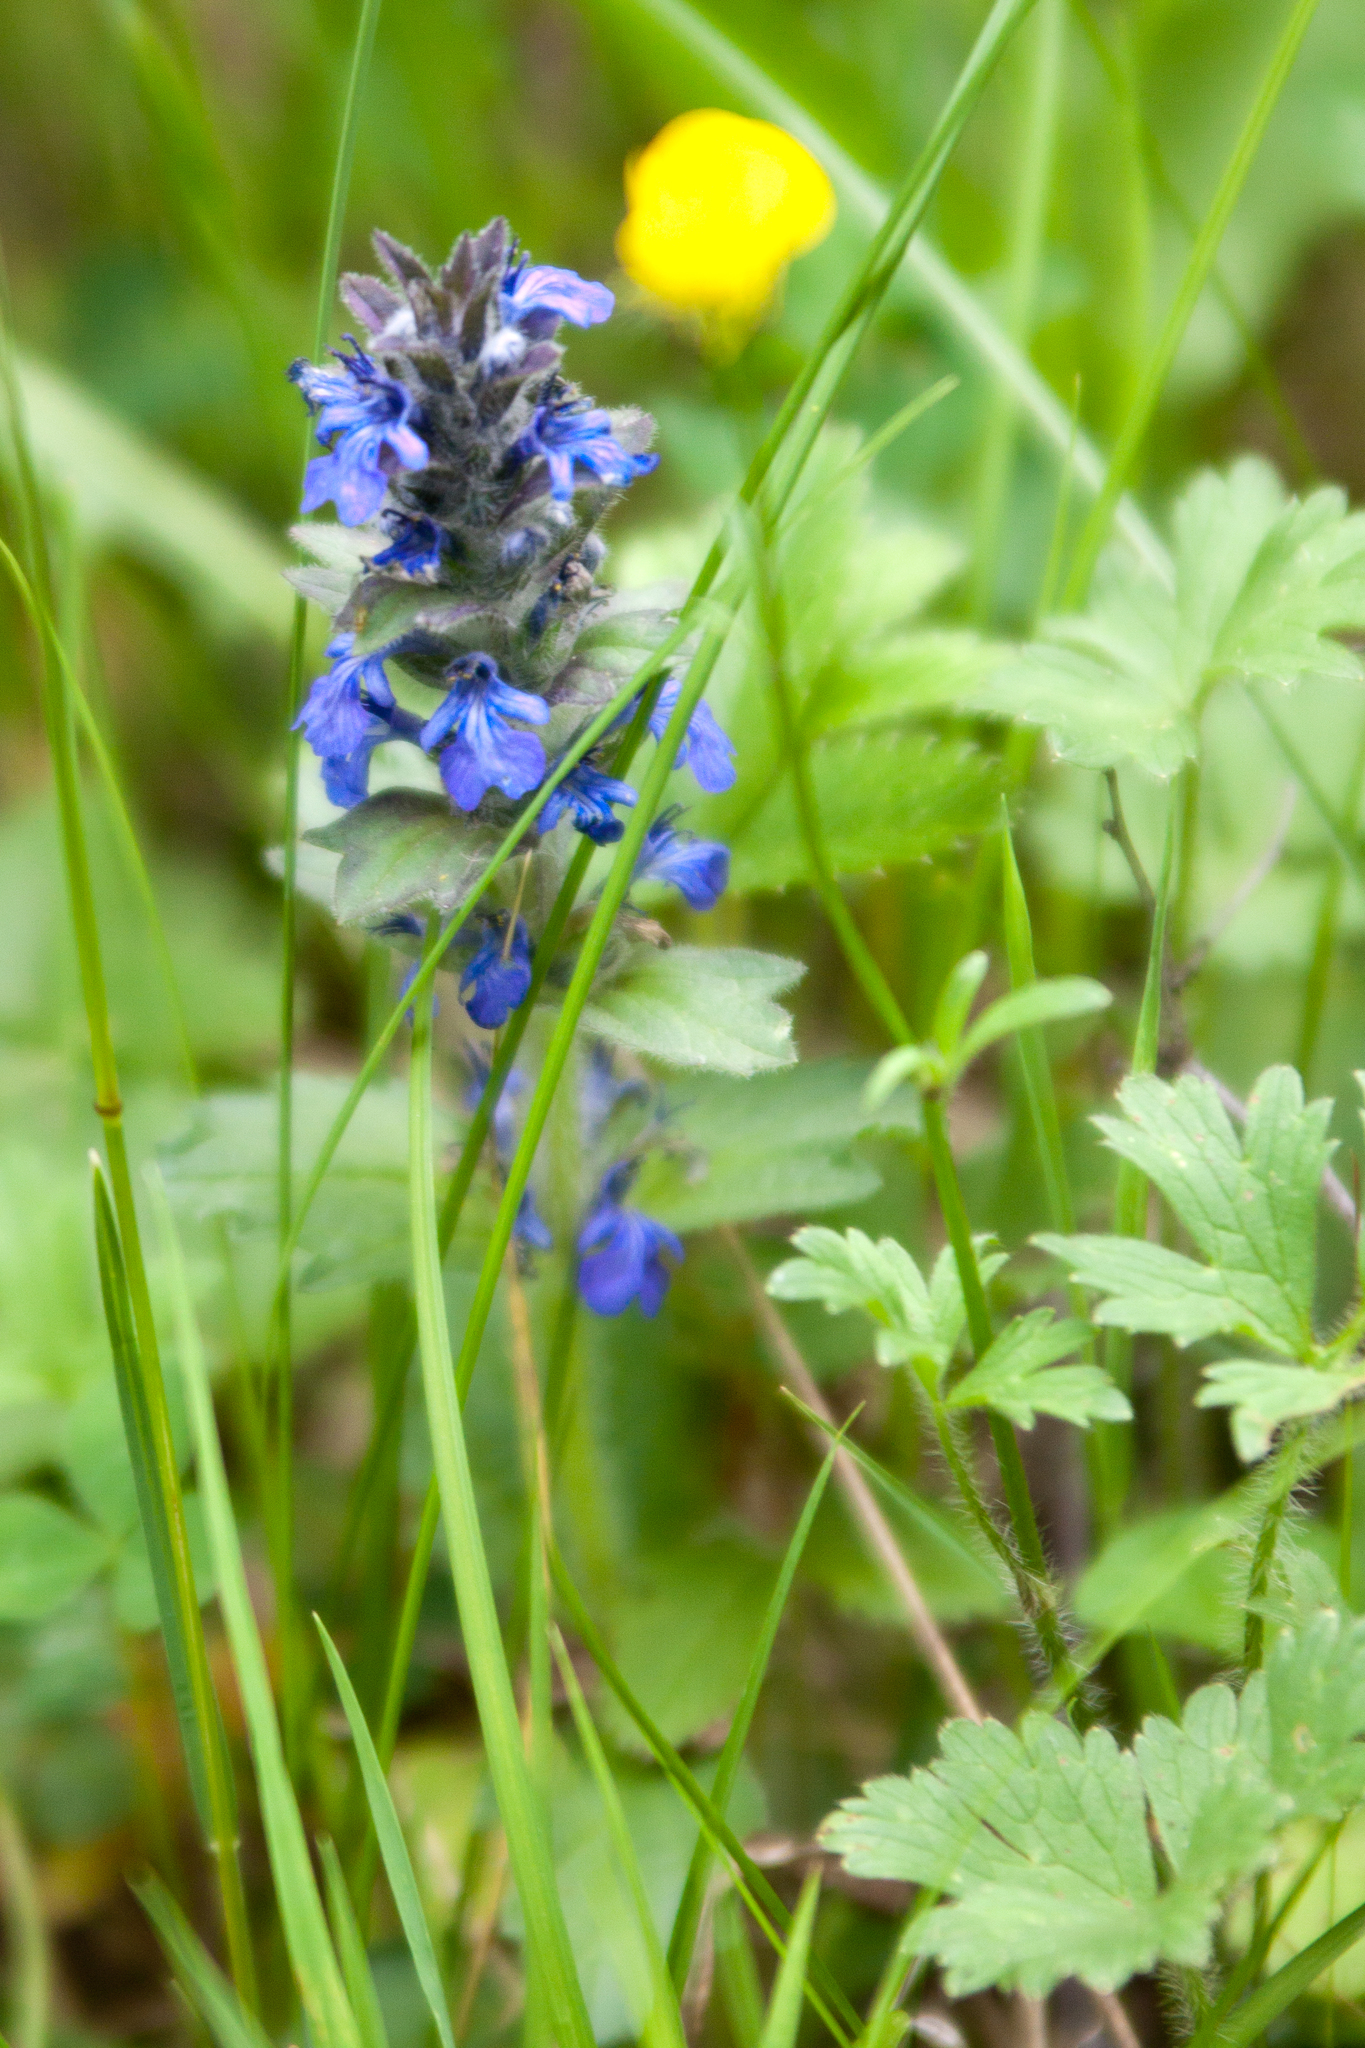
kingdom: Plantae
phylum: Tracheophyta
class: Magnoliopsida
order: Lamiales
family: Lamiaceae
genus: Ajuga
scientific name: Ajuga genevensis
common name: Blue bugle
